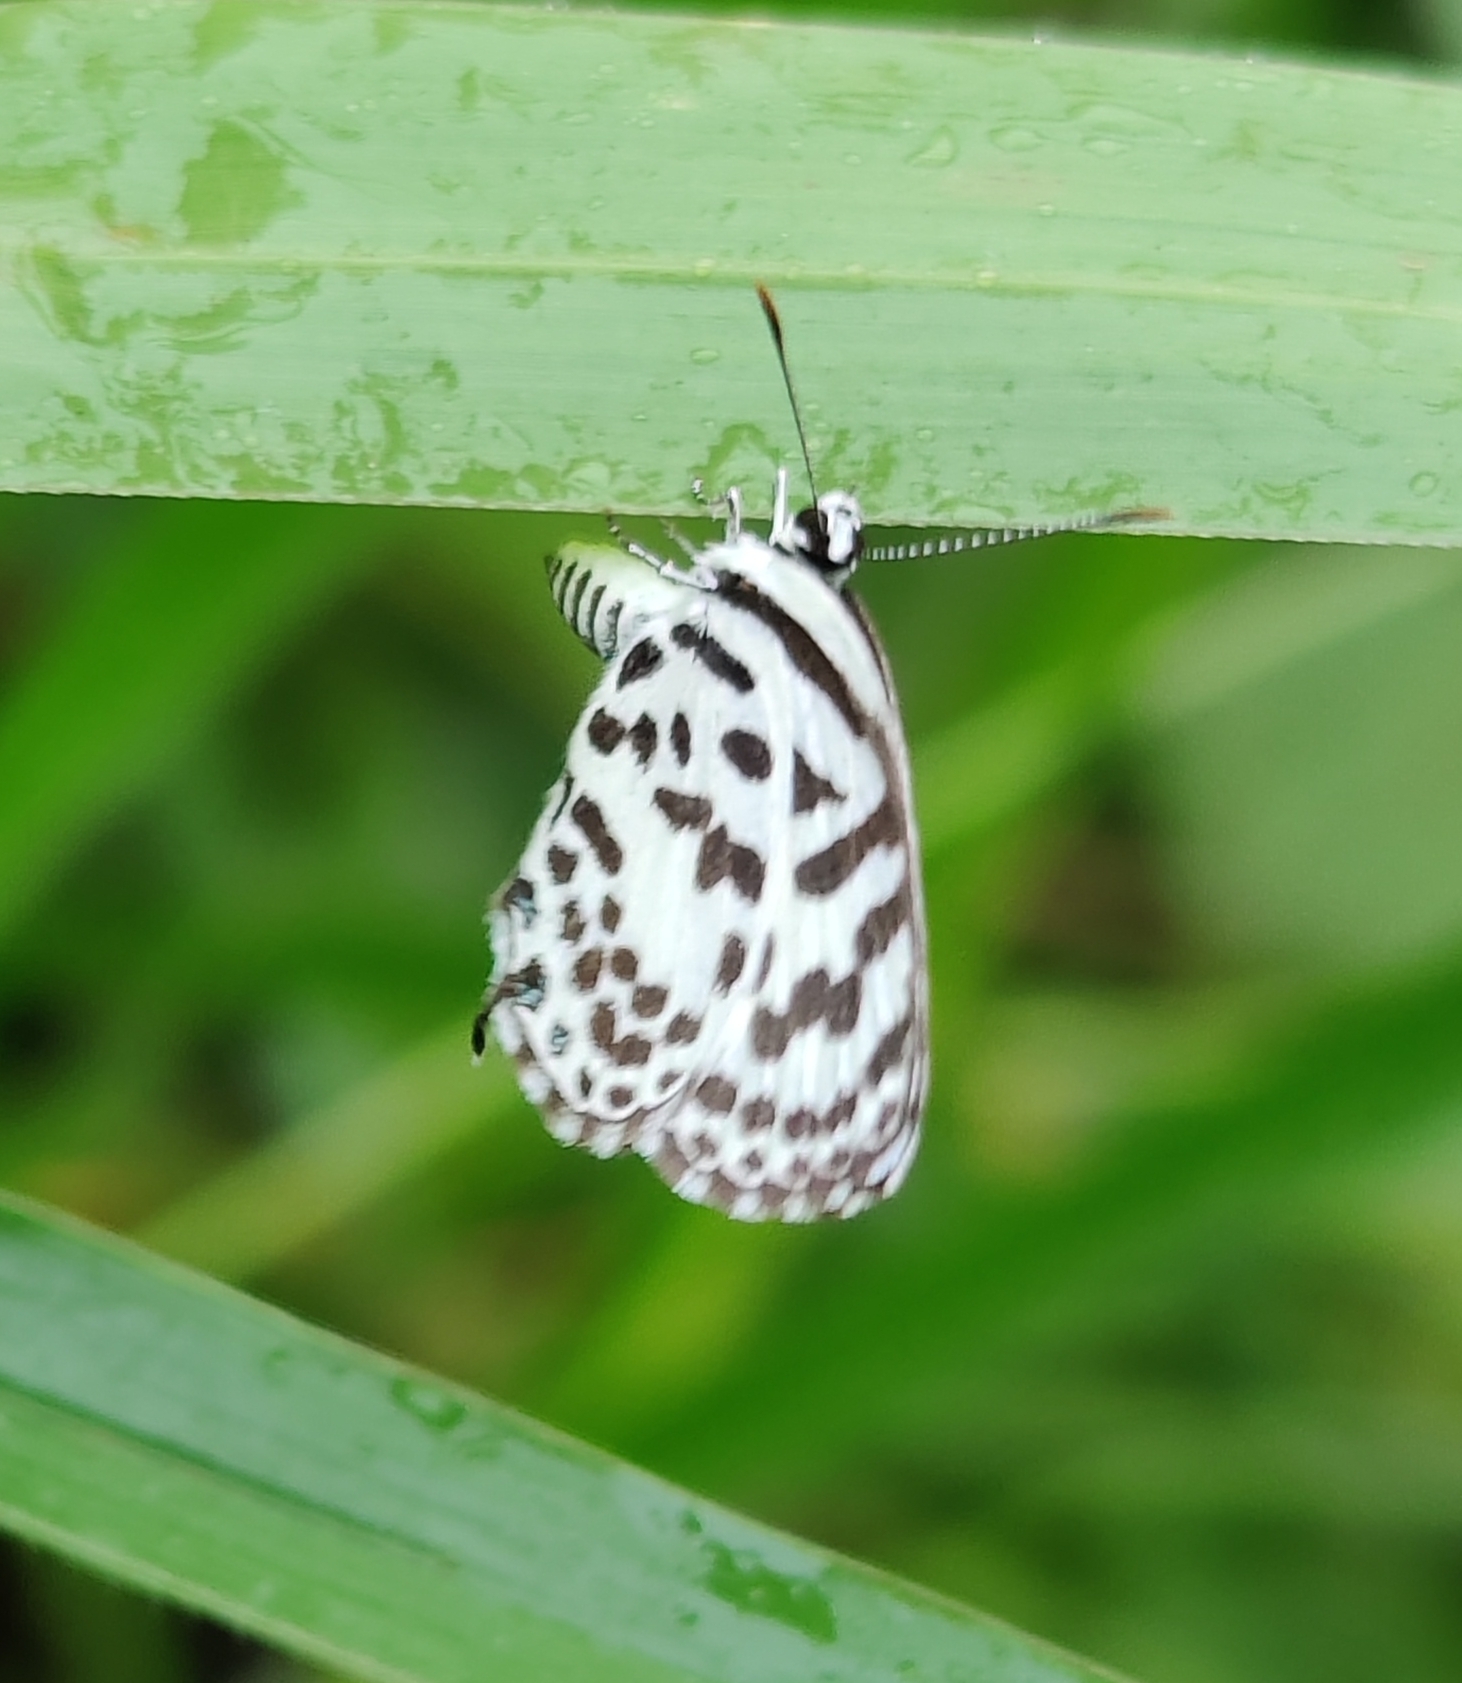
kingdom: Animalia
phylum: Arthropoda
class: Insecta
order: Lepidoptera
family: Lycaenidae
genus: Castalius
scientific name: Castalius rosimon
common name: Common pierrot
